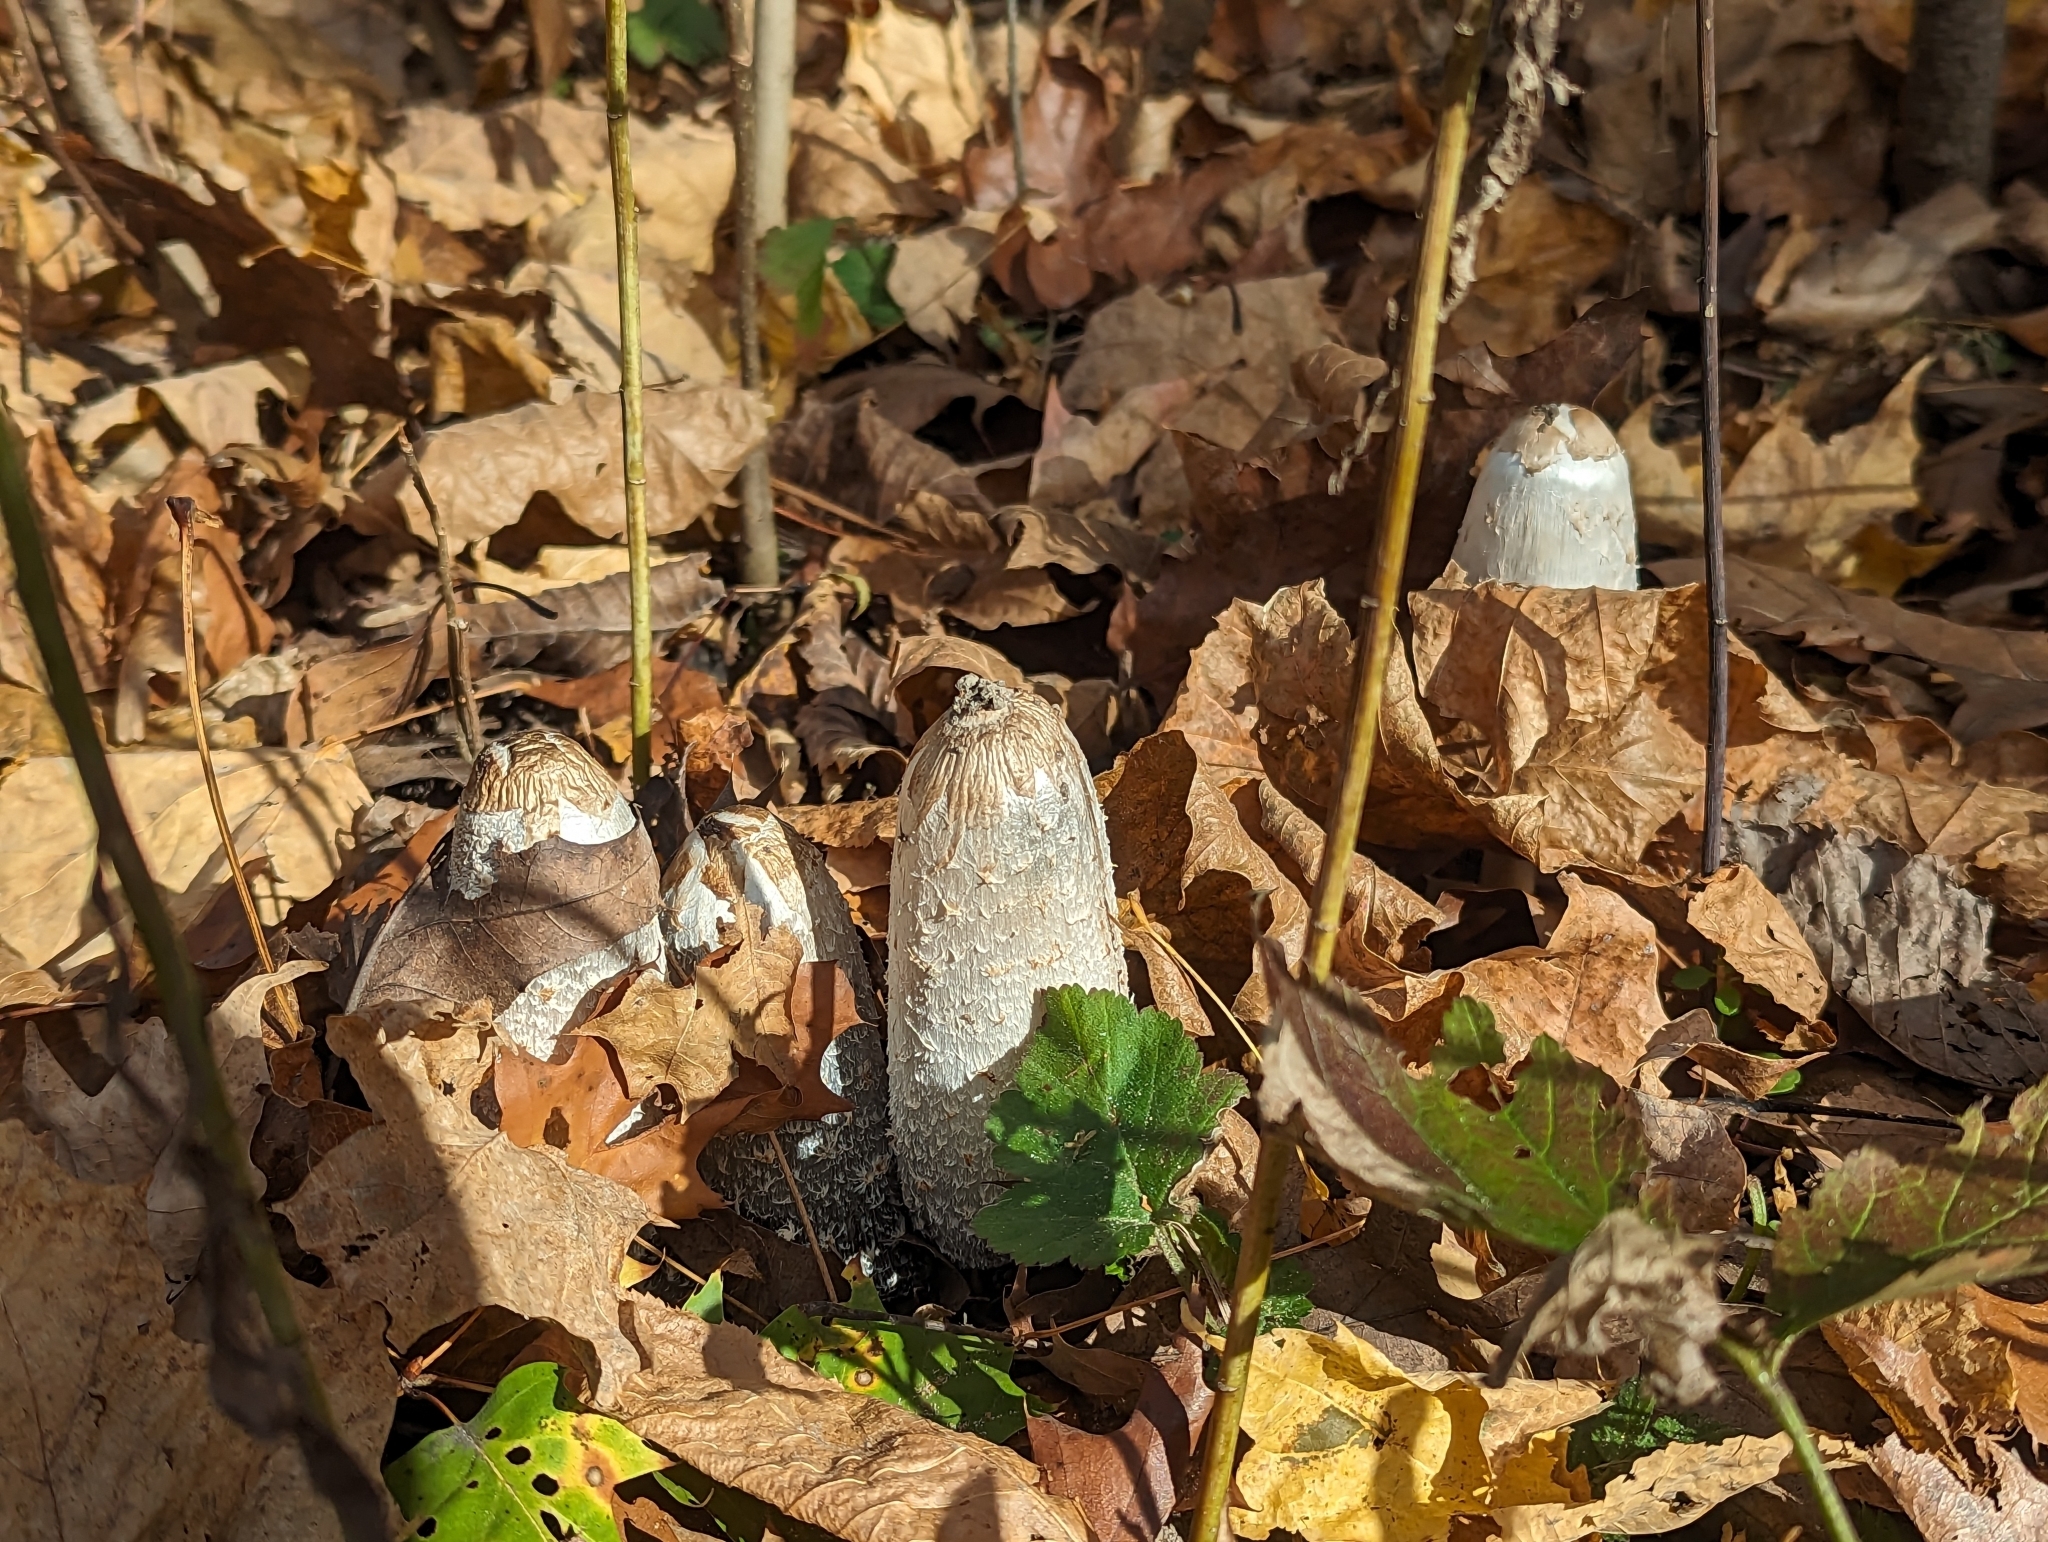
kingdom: Fungi
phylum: Basidiomycota
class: Agaricomycetes
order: Agaricales
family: Agaricaceae
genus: Coprinus
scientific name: Coprinus comatus
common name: Lawyer's wig
